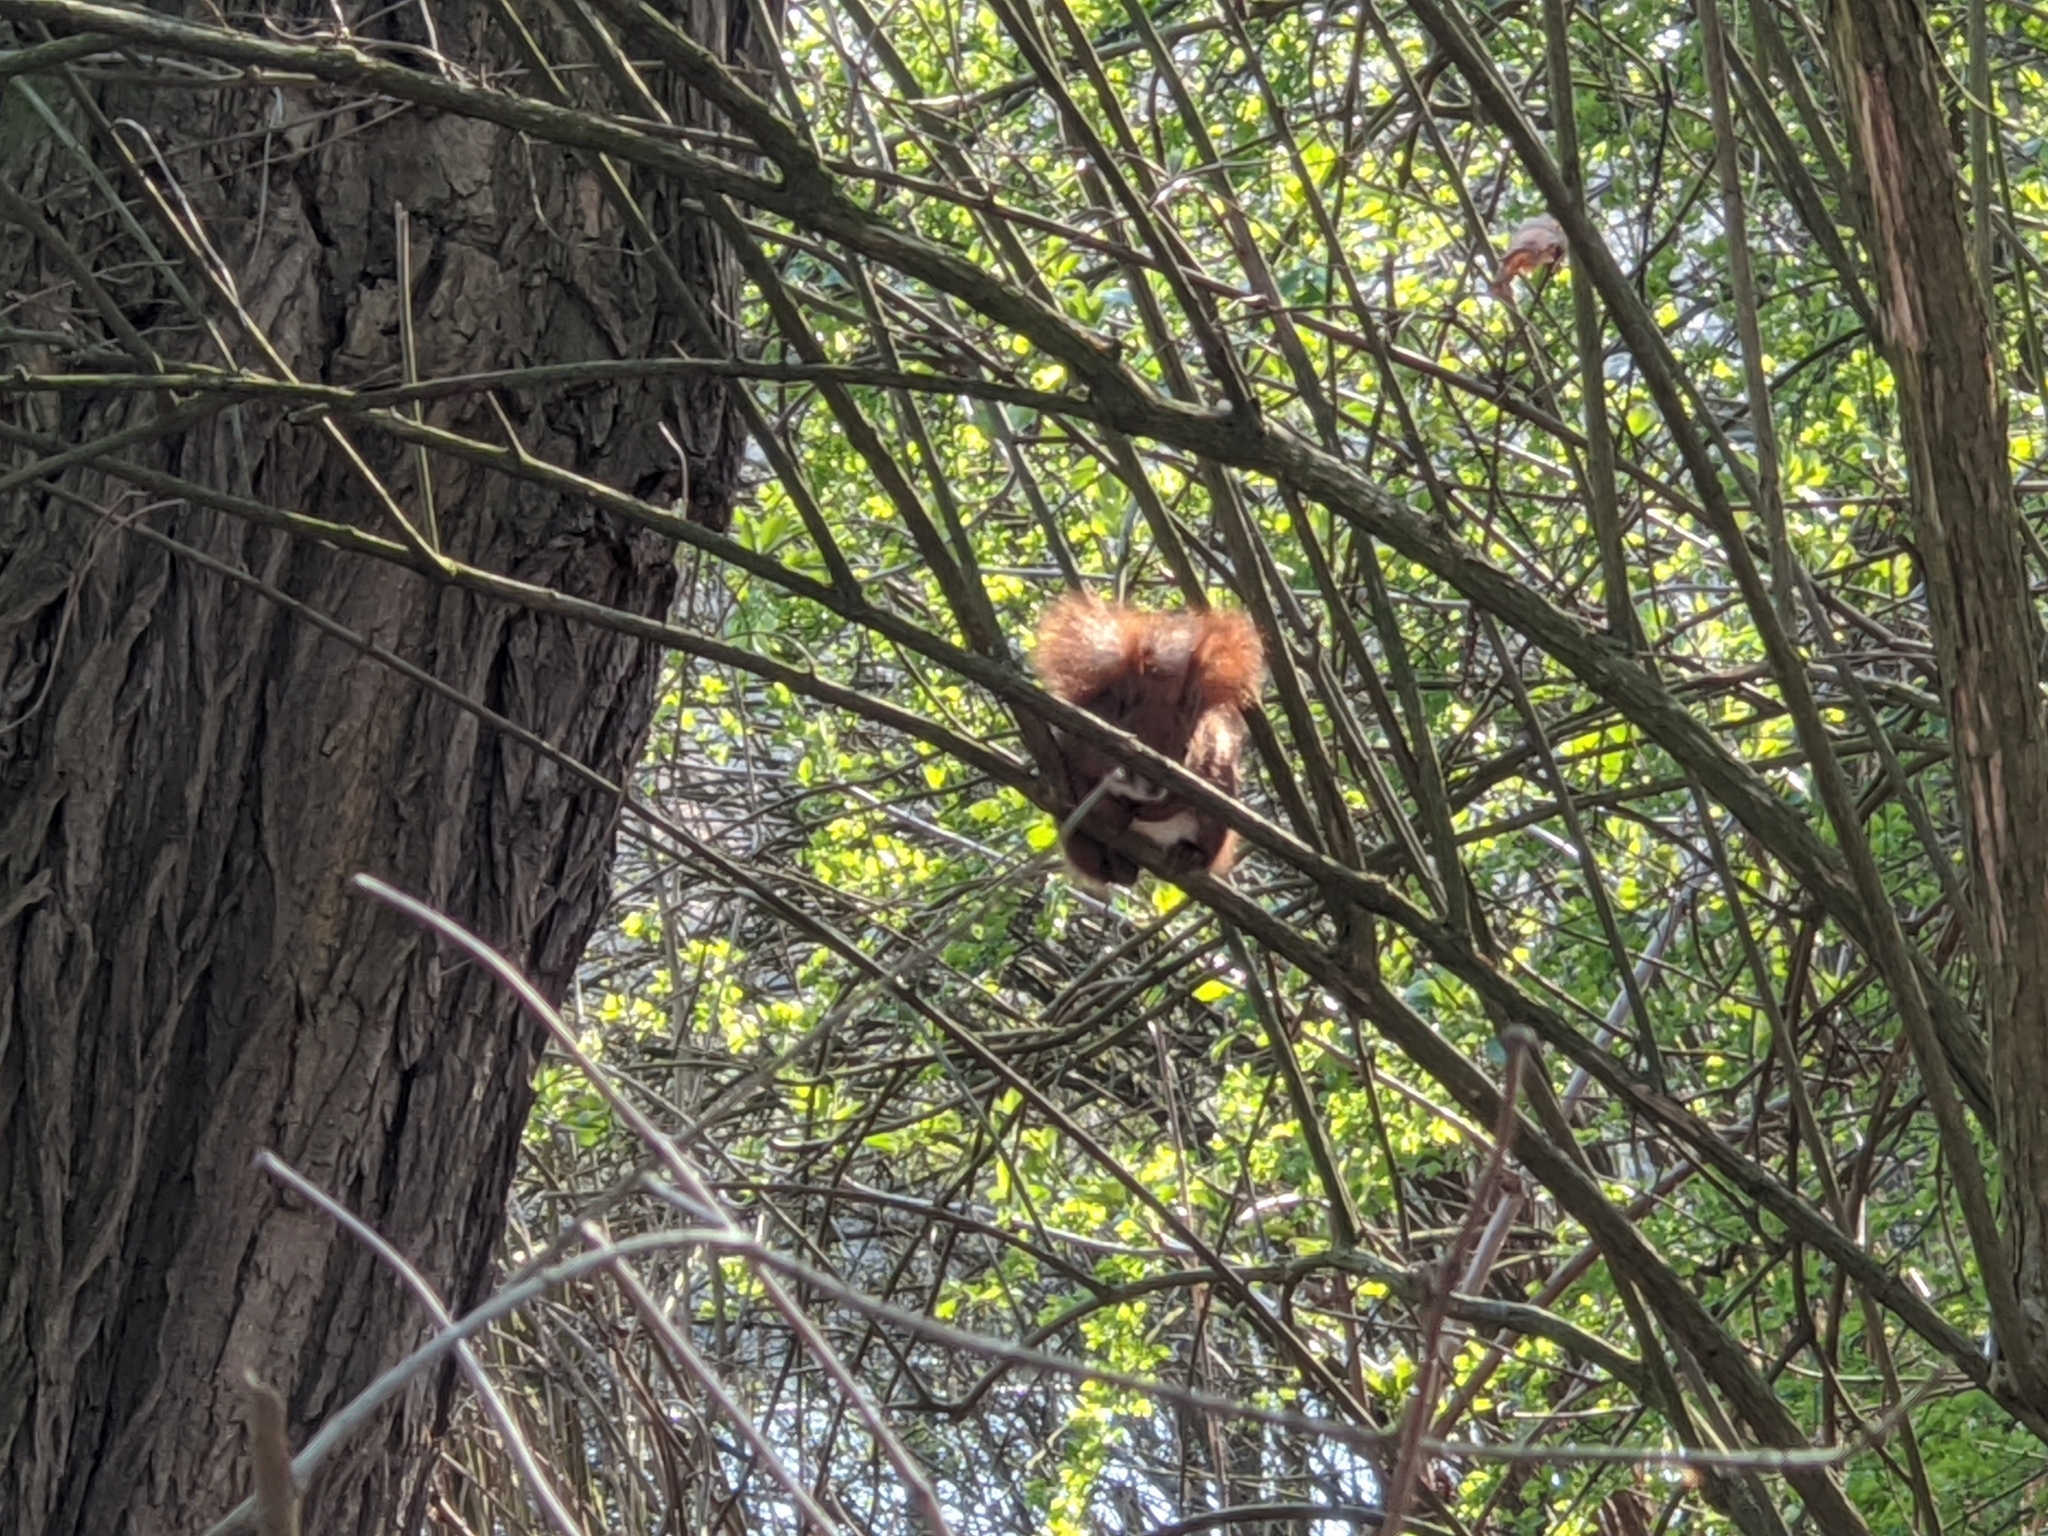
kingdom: Animalia
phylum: Chordata
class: Mammalia
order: Rodentia
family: Sciuridae
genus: Sciurus
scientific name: Sciurus vulgaris
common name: Eurasian red squirrel
